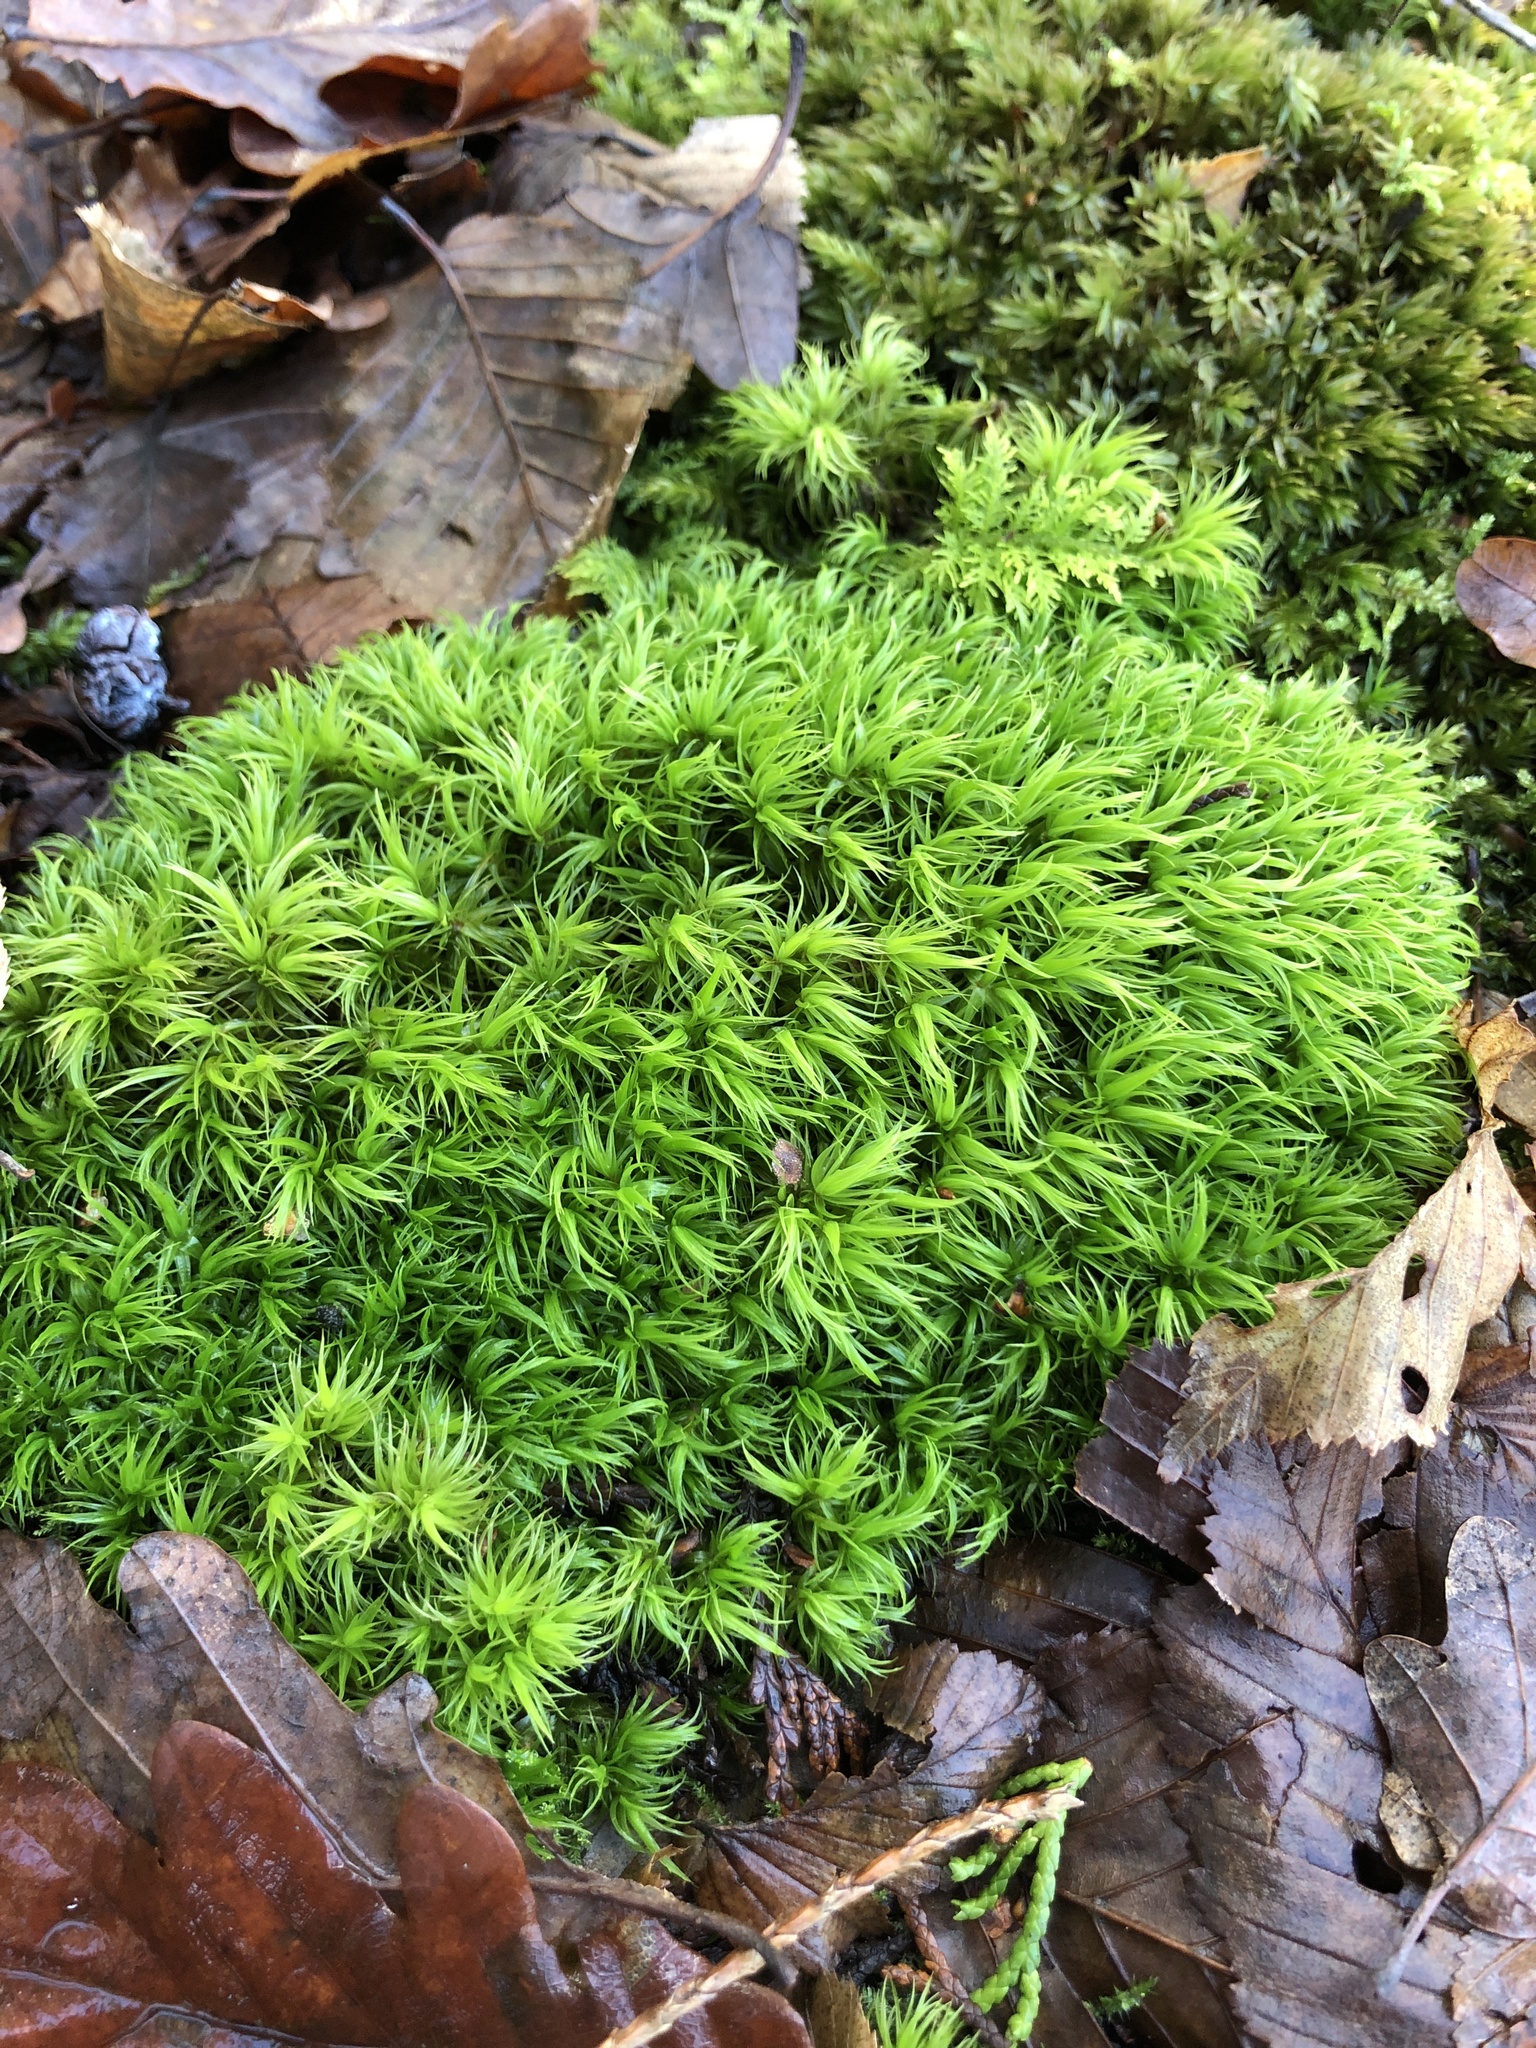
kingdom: Plantae
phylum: Bryophyta
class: Bryopsida
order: Dicranales
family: Dicranaceae
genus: Dicranum
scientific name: Dicranum scoparium
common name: Broom fork-moss
